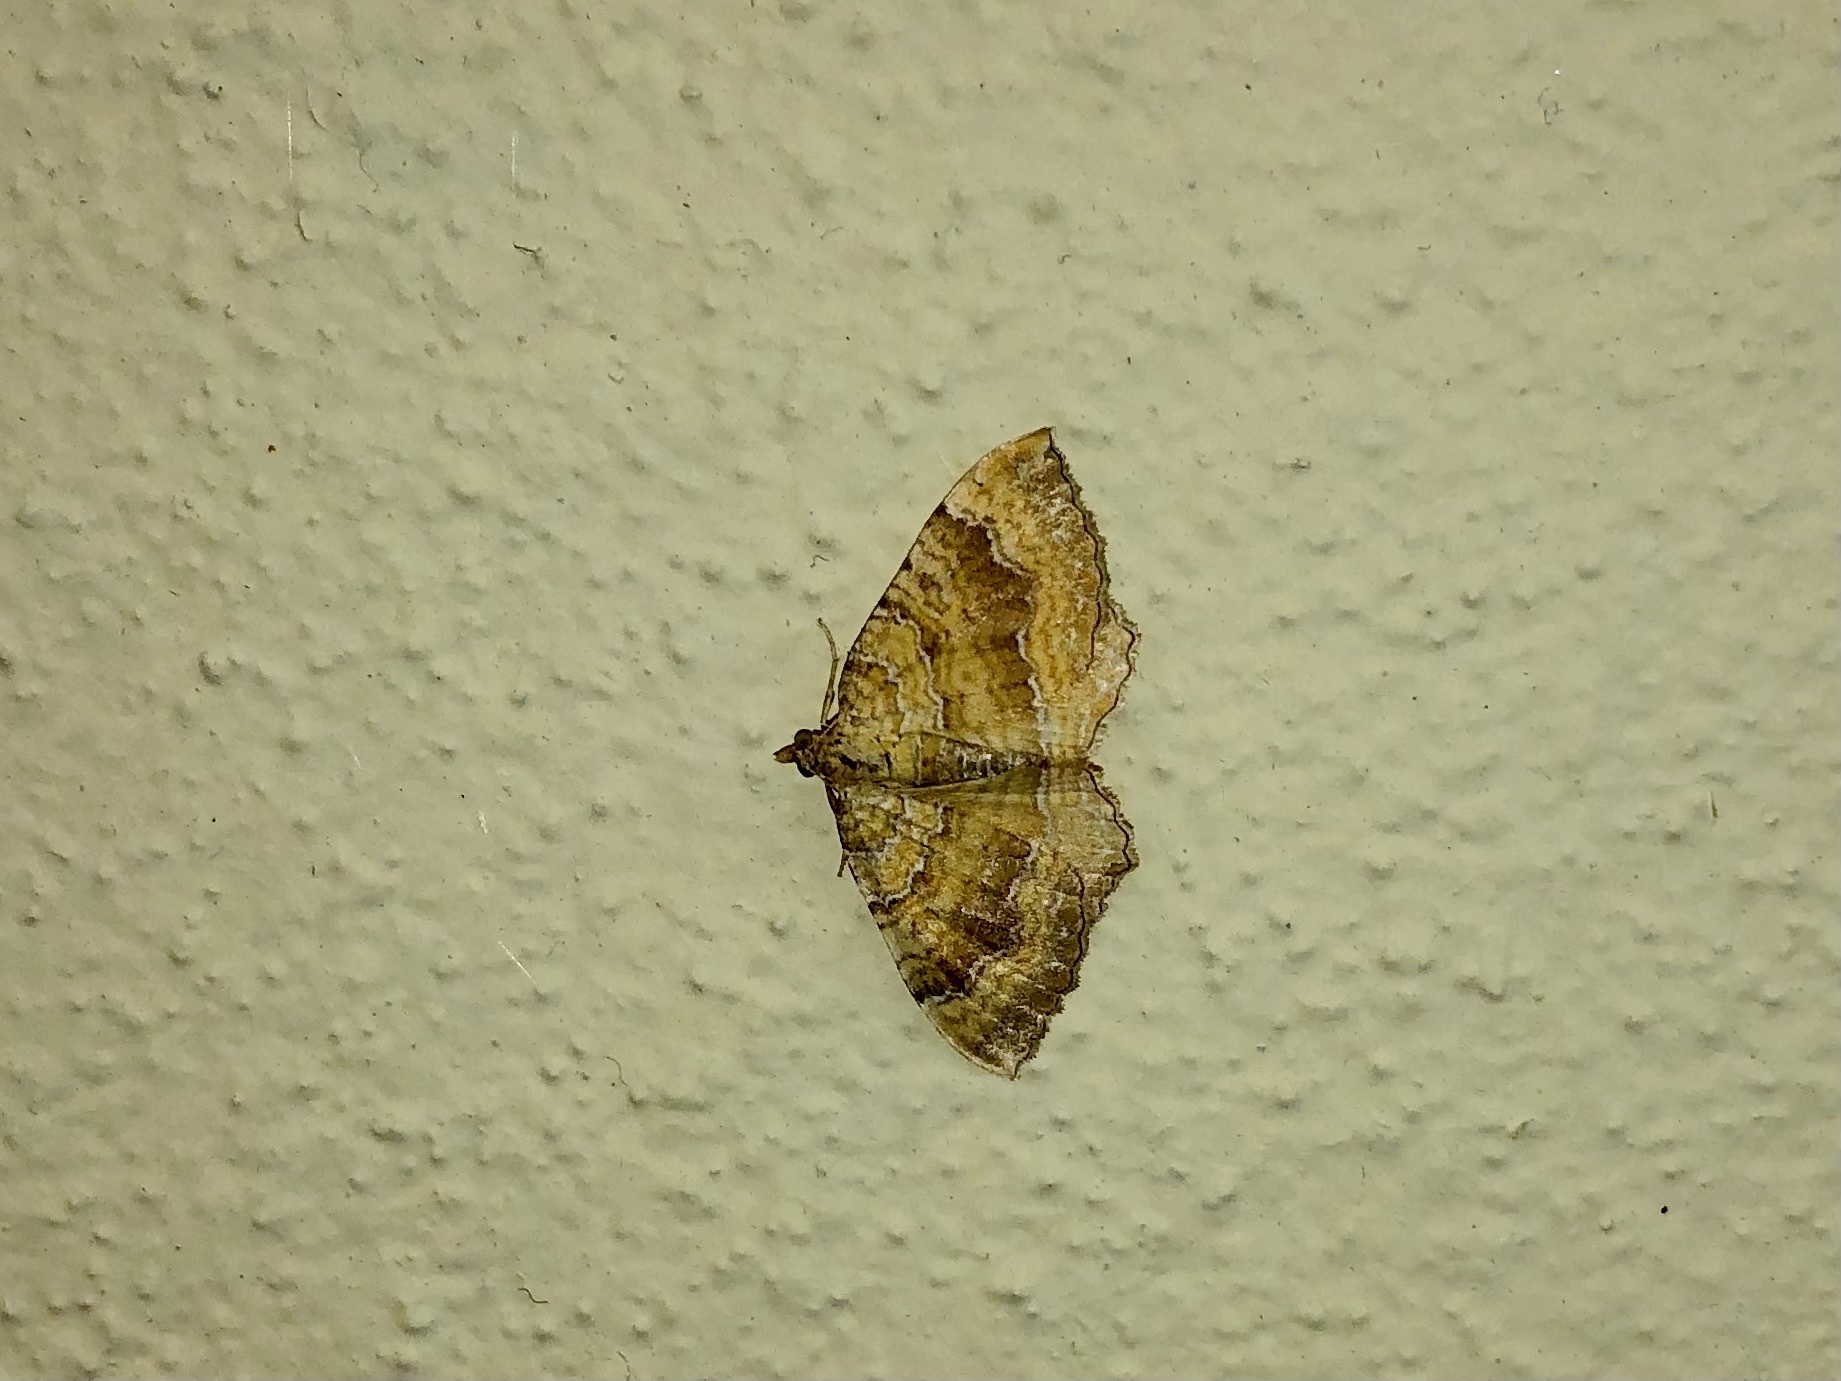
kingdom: Animalia
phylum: Arthropoda
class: Insecta
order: Lepidoptera
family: Geometridae
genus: Camptogramma
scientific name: Camptogramma bilineata
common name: Yellow shell
